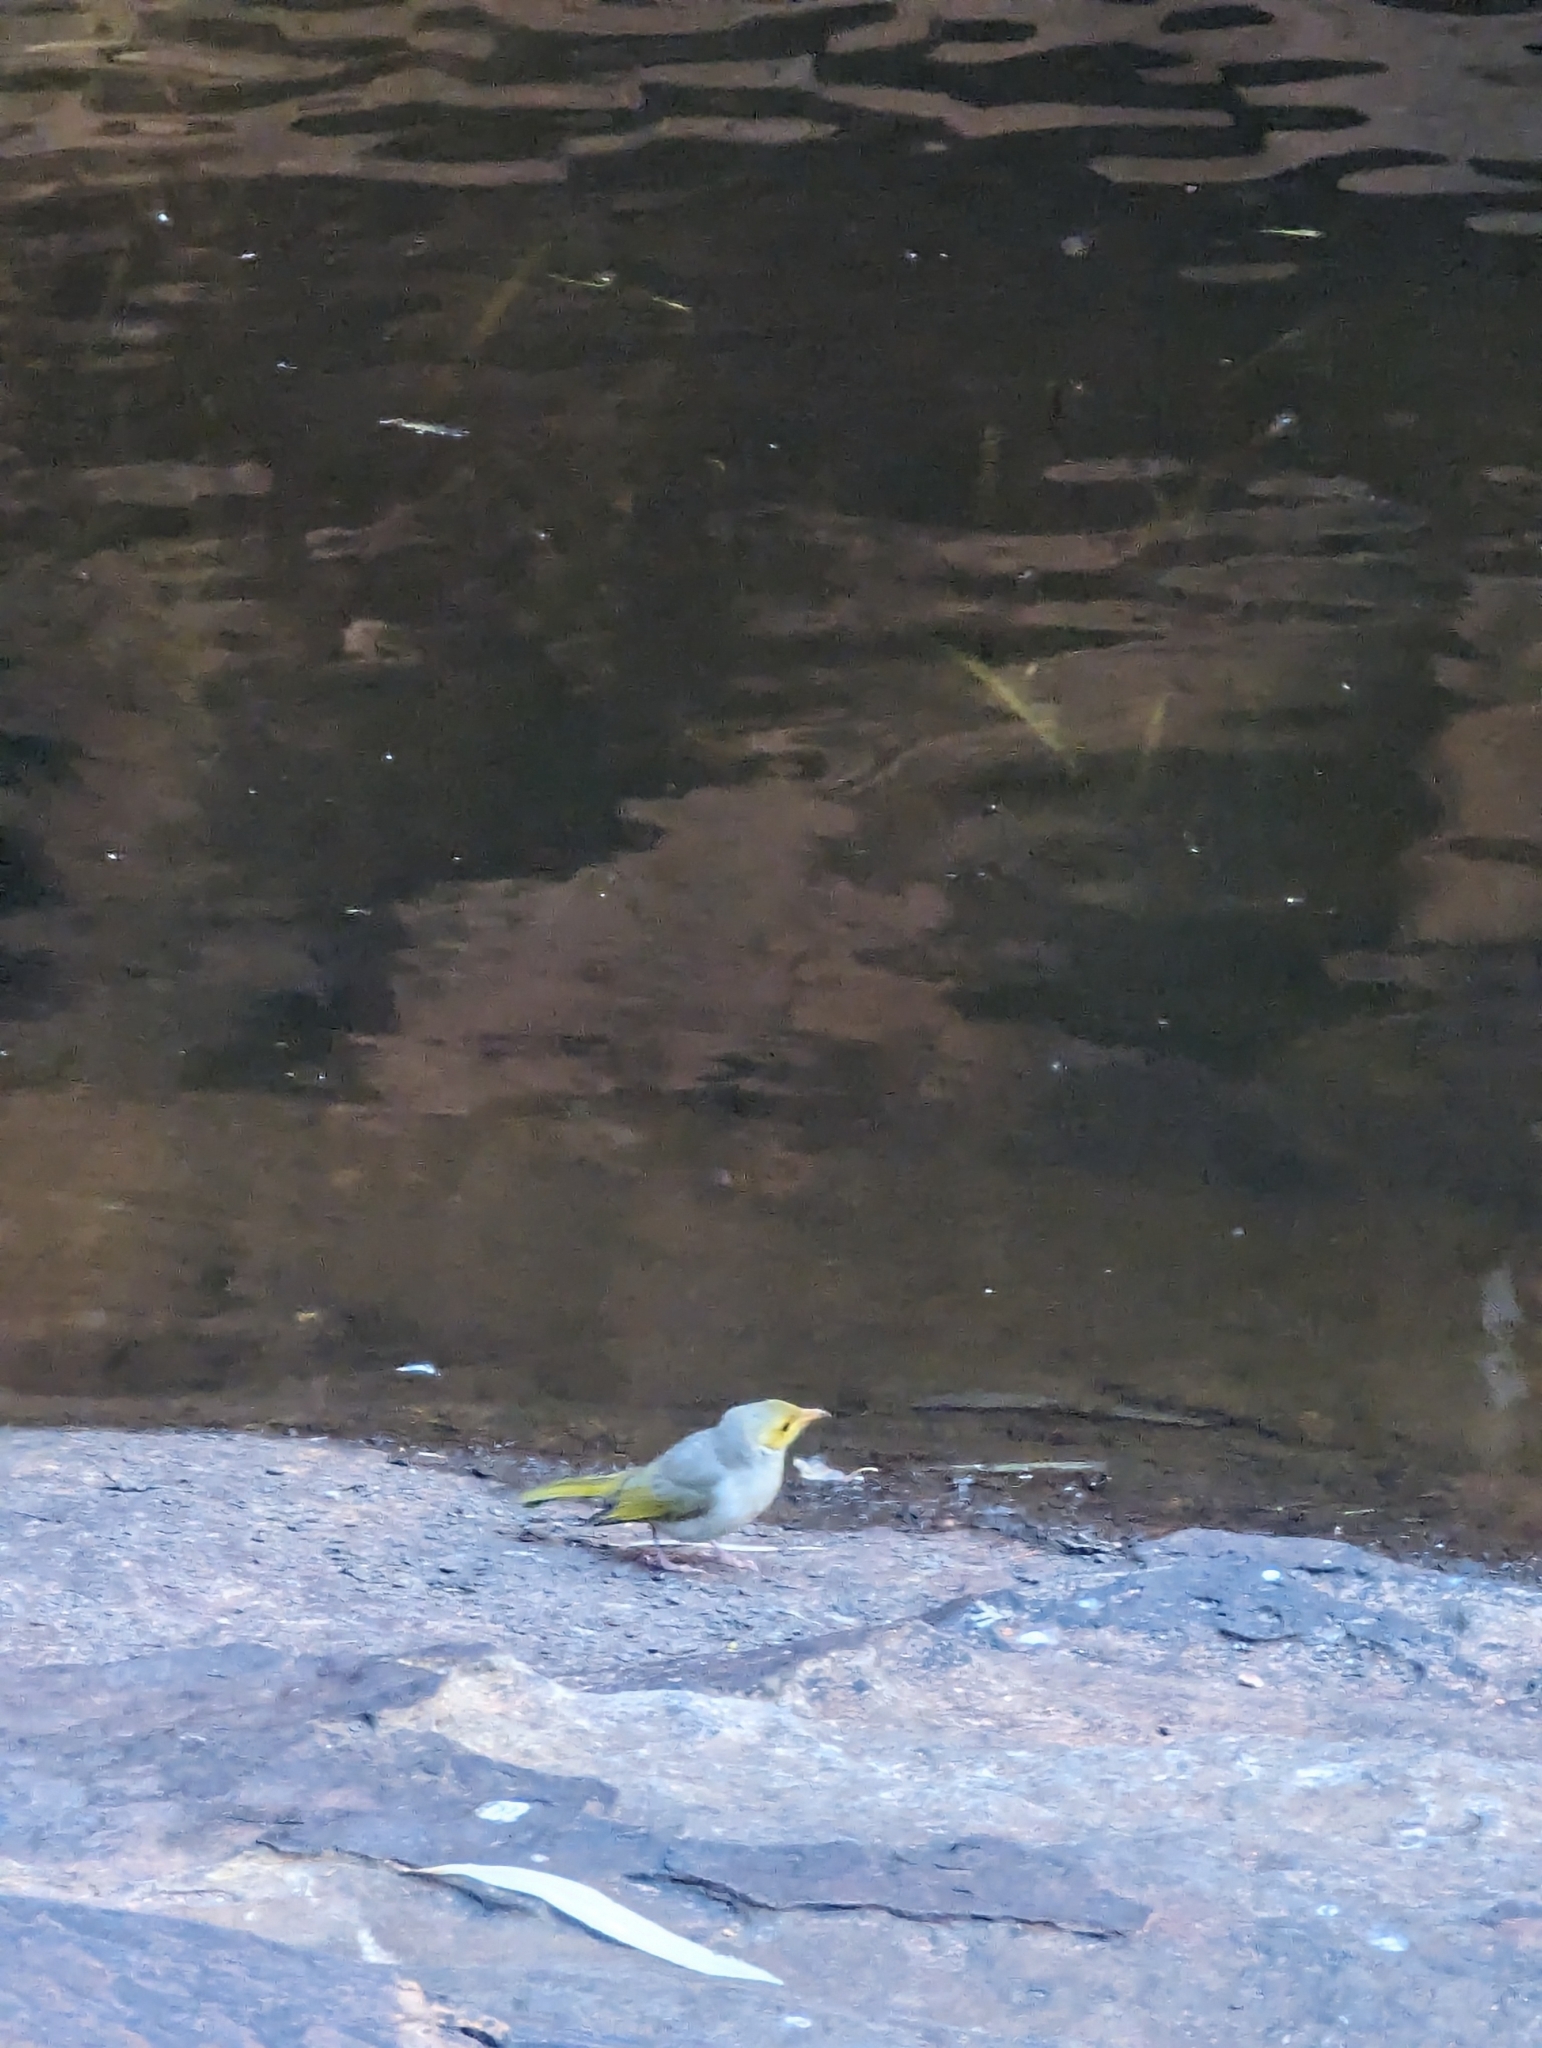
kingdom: Animalia
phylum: Chordata
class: Aves
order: Passeriformes
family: Meliphagidae
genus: Ptilotula
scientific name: Ptilotula penicillata
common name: White-plumed honeyeater
